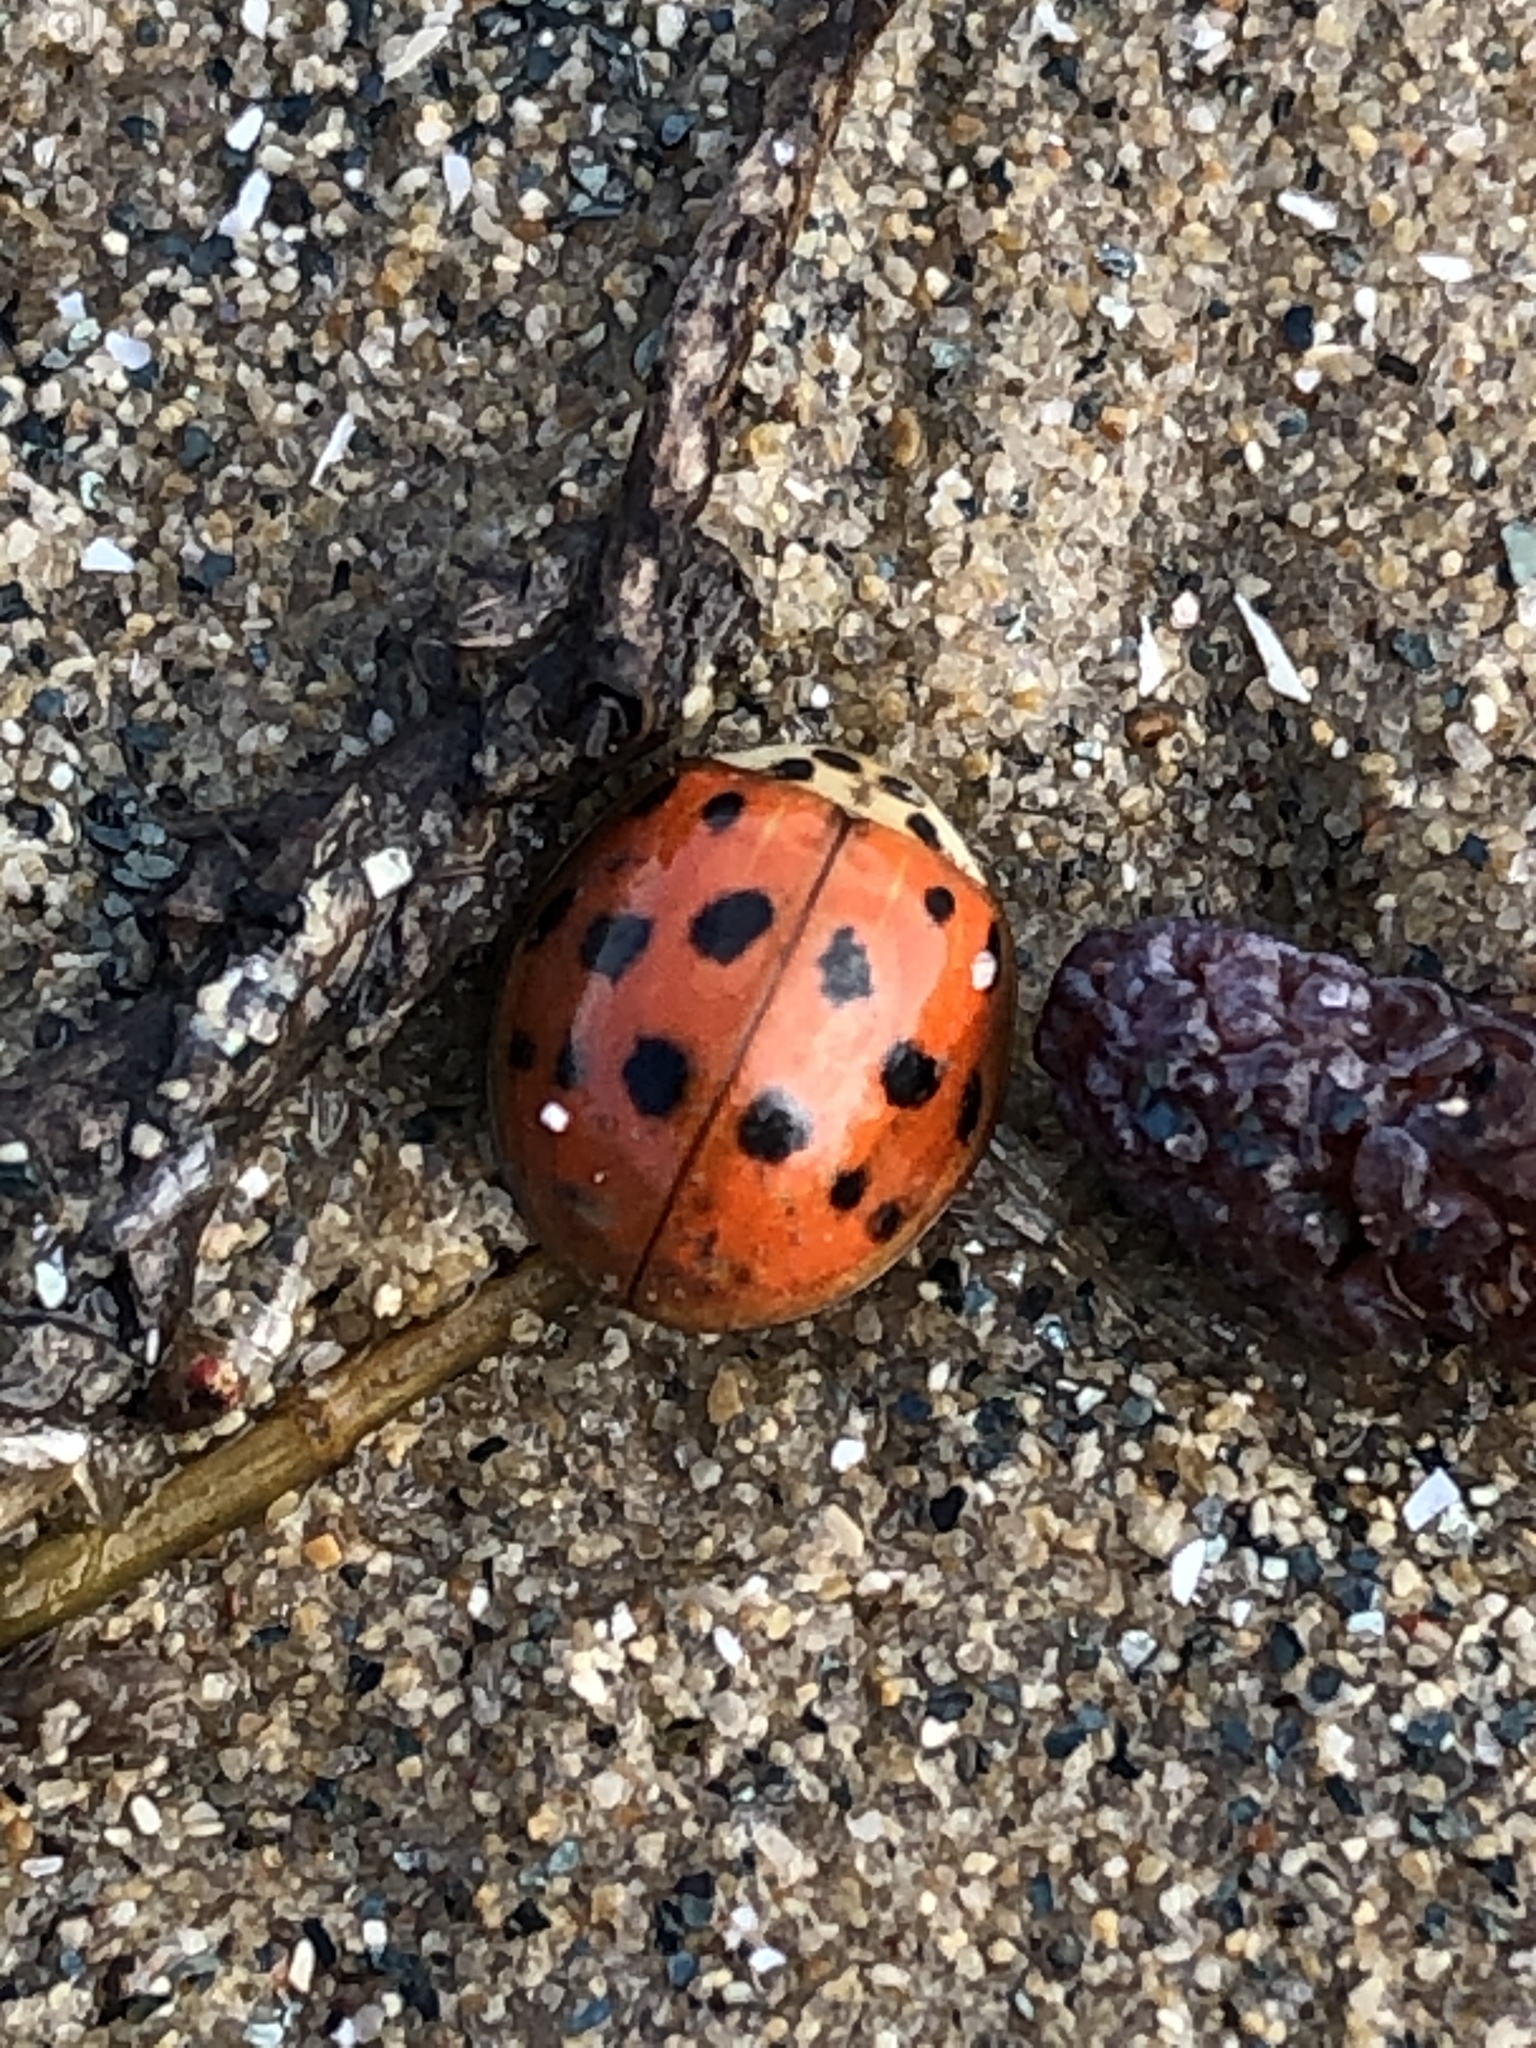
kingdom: Animalia
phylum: Arthropoda
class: Insecta
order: Coleoptera
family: Coccinellidae
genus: Harmonia
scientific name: Harmonia axyridis
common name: Harlequin ladybird
